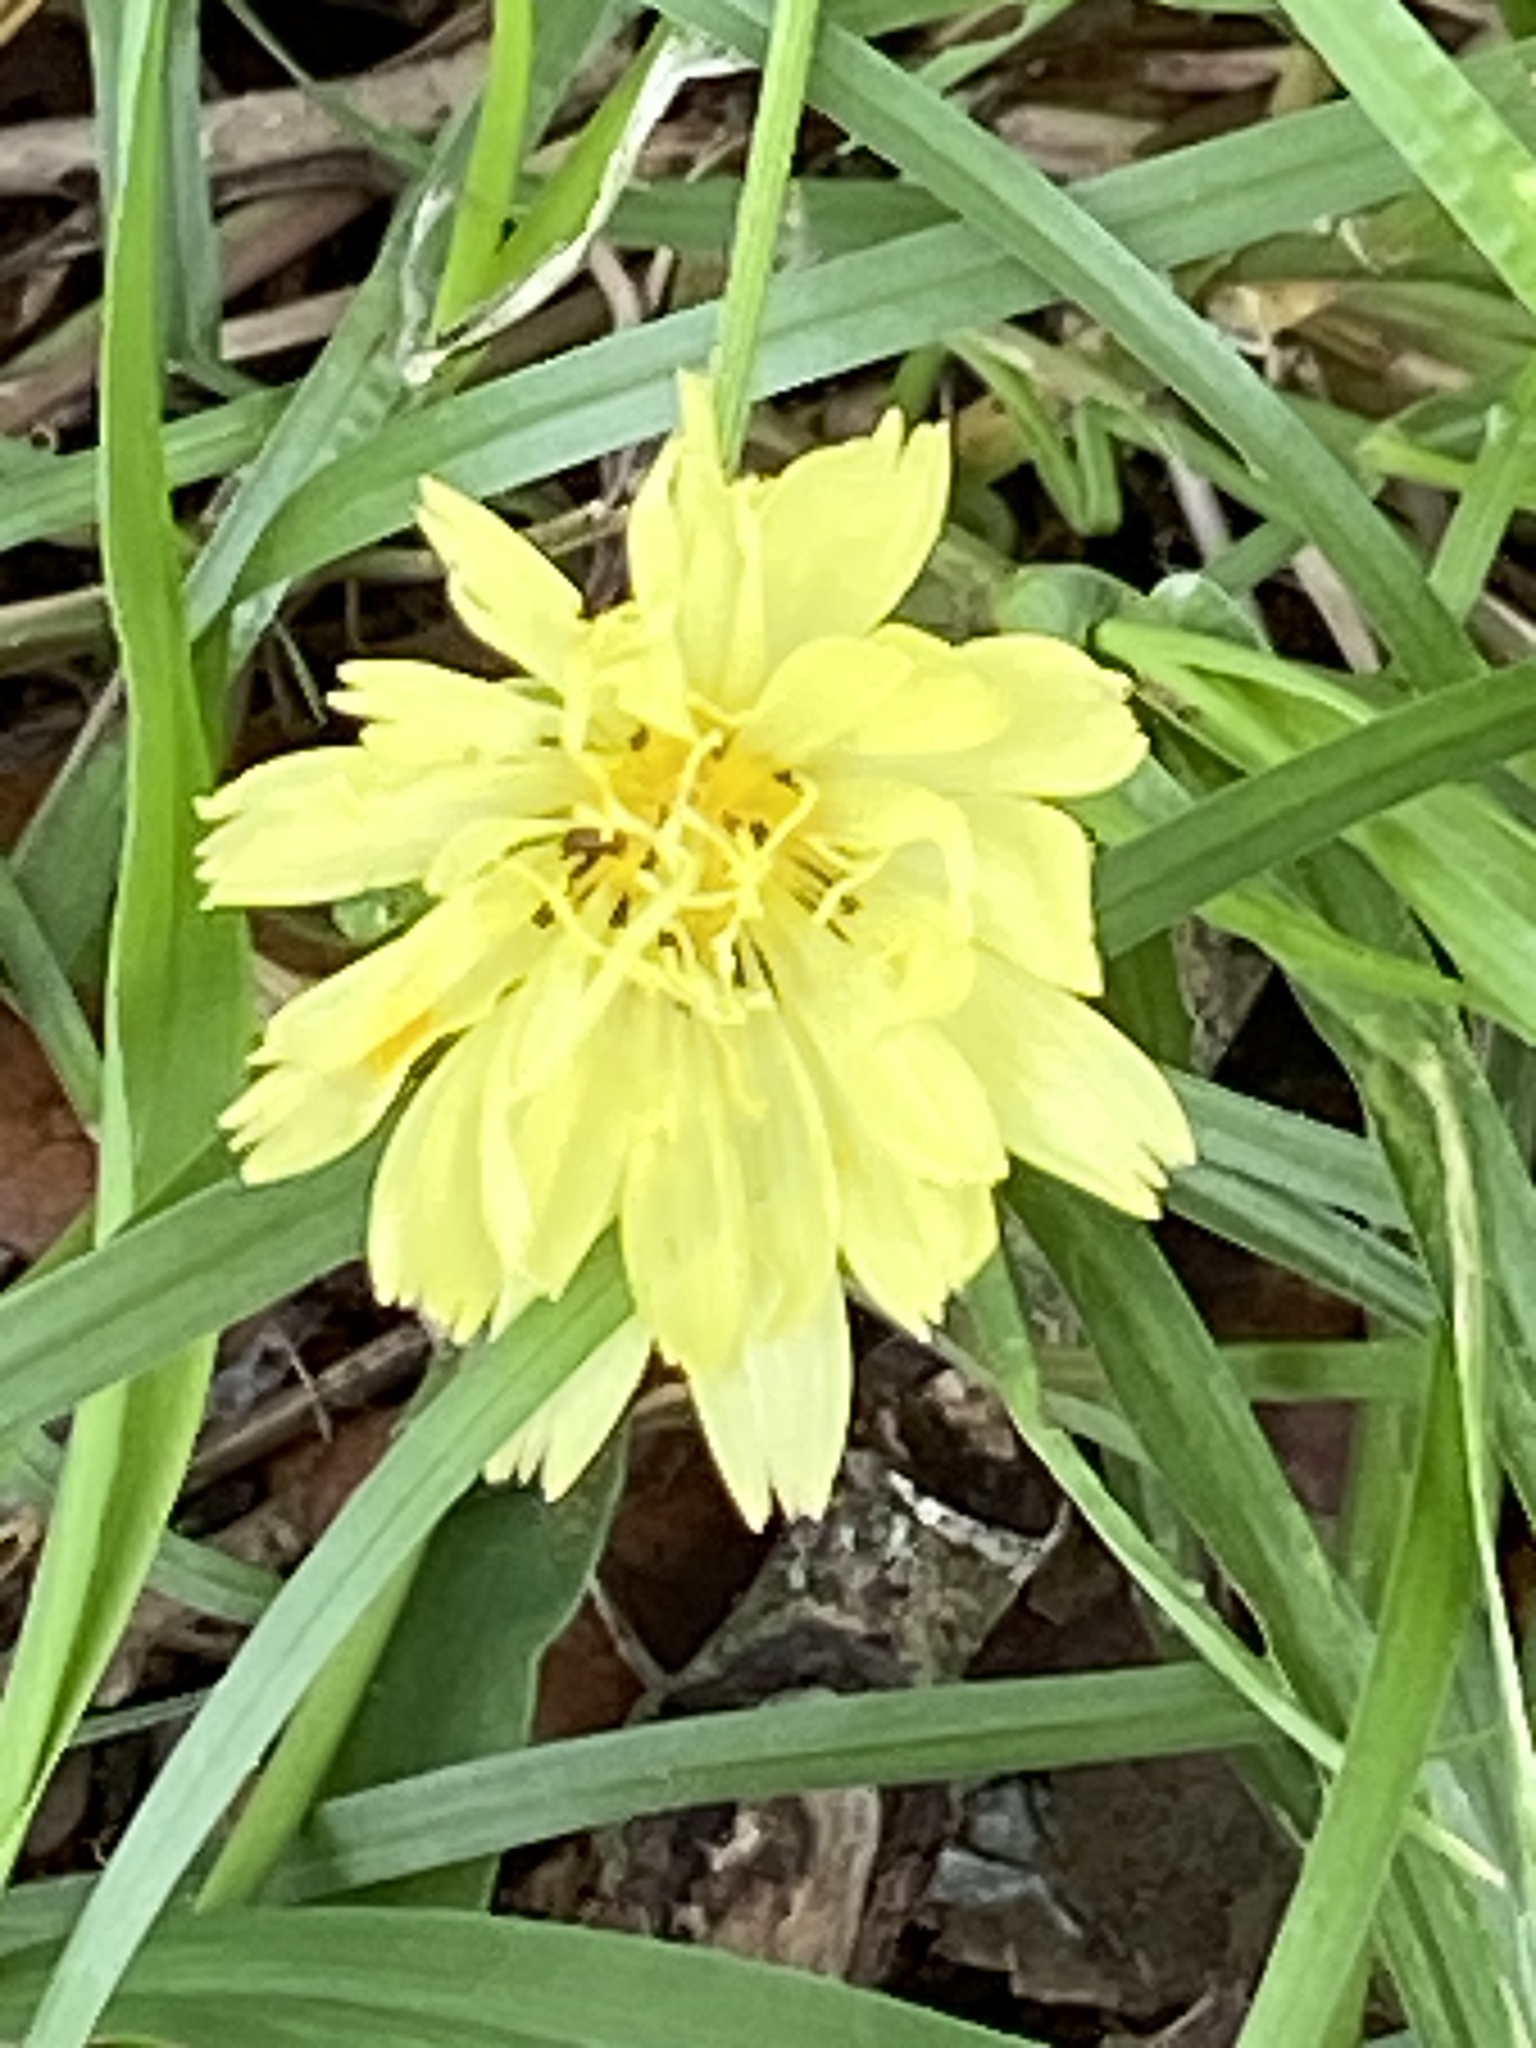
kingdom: Plantae
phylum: Tracheophyta
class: Magnoliopsida
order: Asterales
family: Asteraceae
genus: Pyrrhopappus
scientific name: Pyrrhopappus pauciflorus
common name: Texas false dandelion
